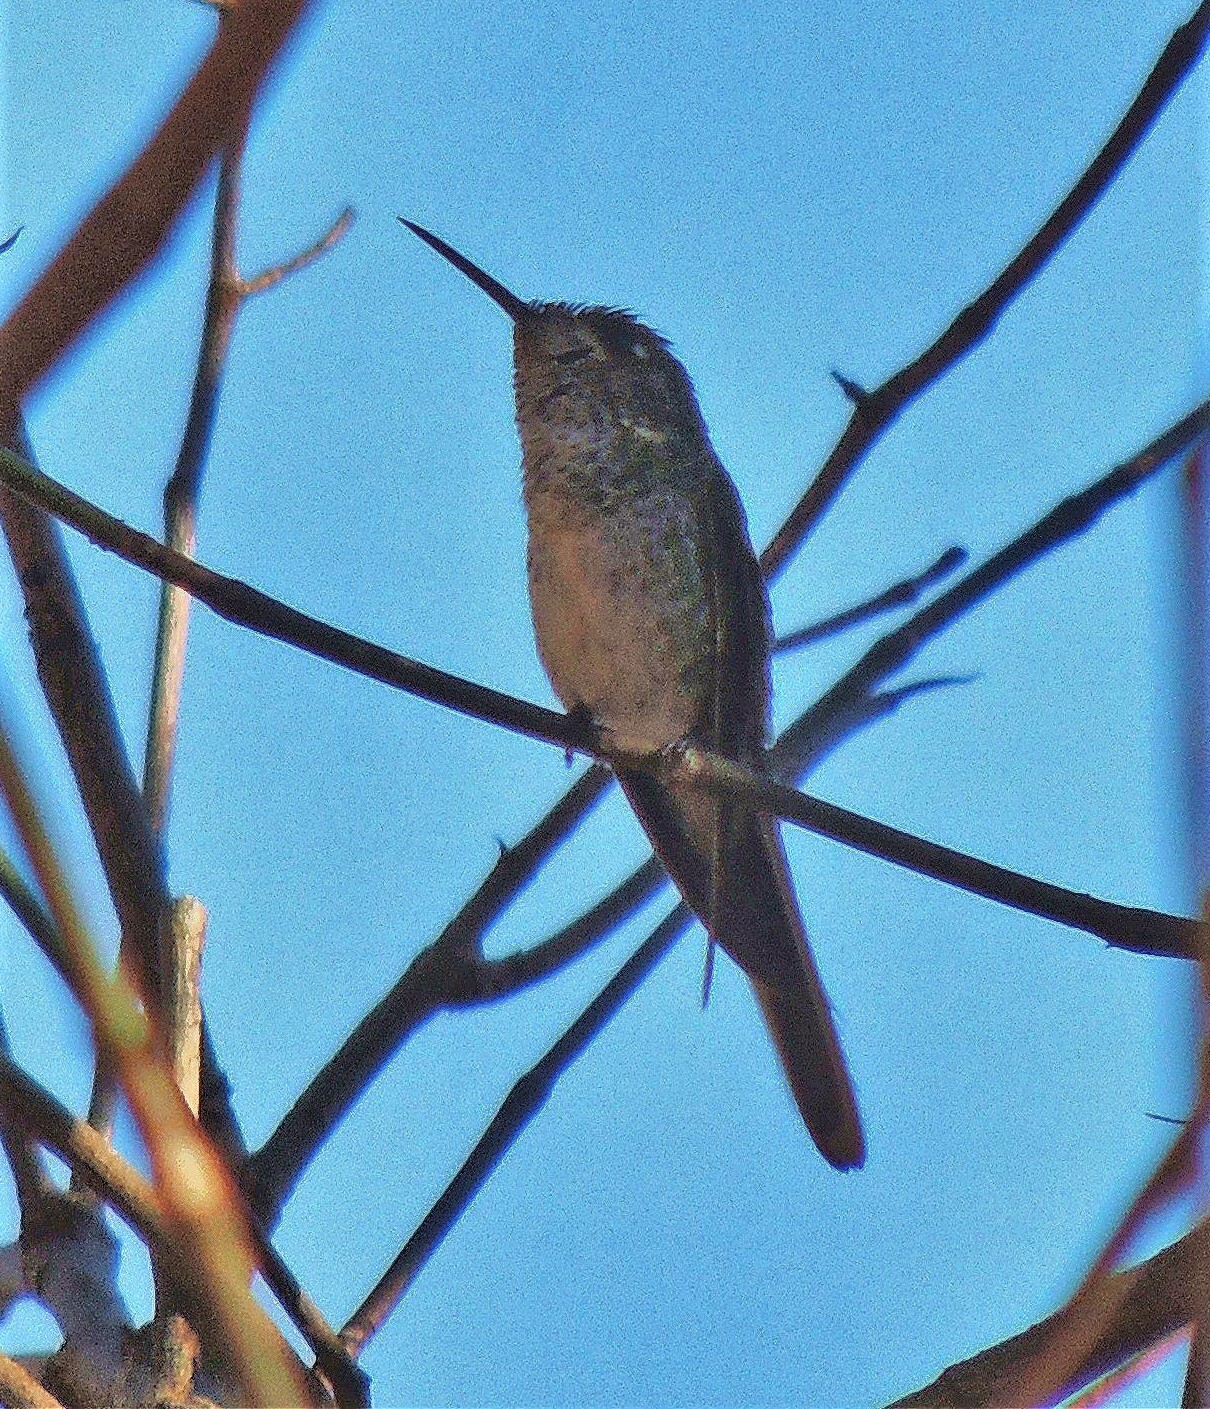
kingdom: Animalia
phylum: Chordata
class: Aves
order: Apodiformes
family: Trochilidae
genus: Sappho
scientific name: Sappho sparganurus
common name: Red-tailed comet
